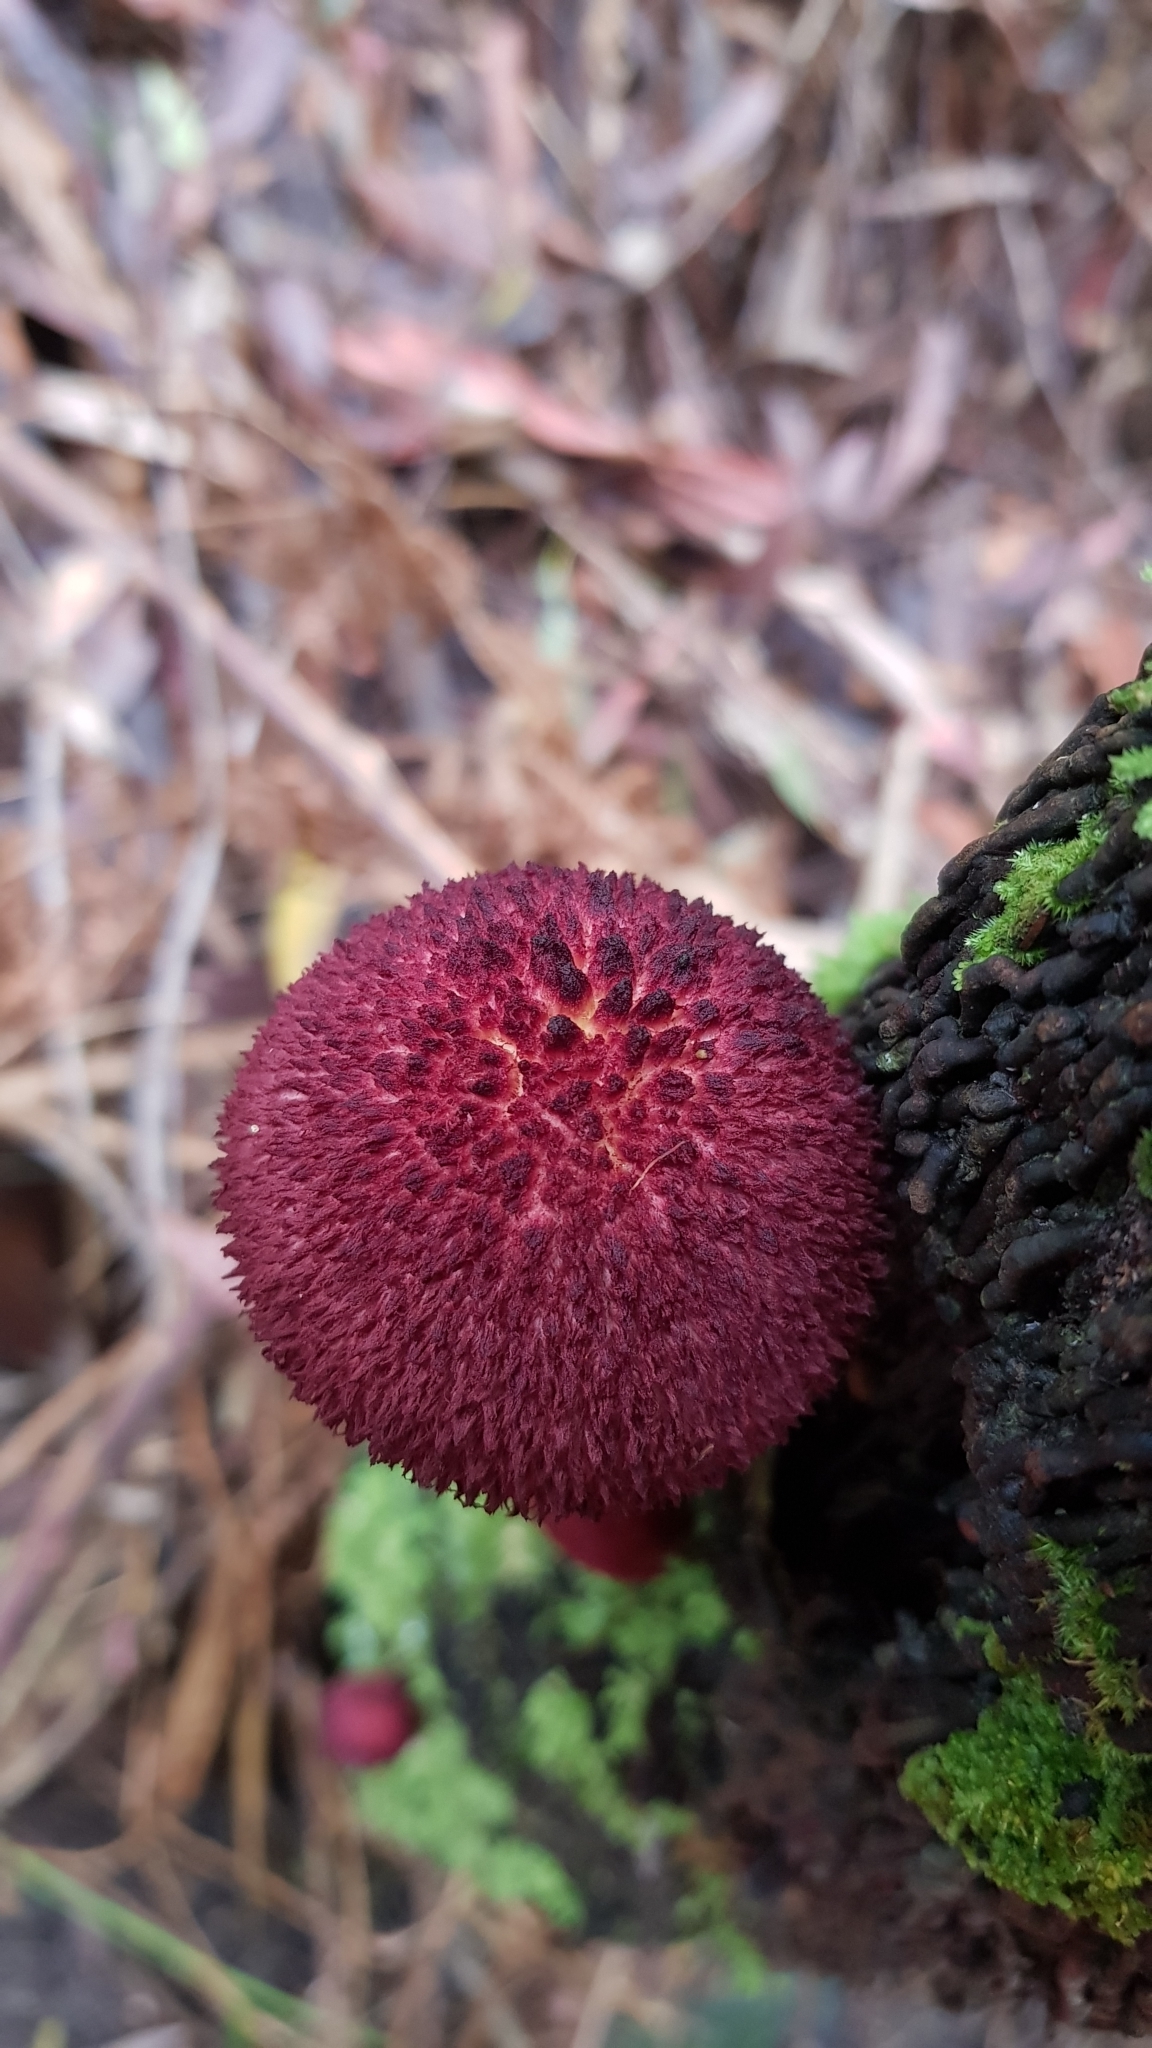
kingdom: Fungi
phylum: Basidiomycota
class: Agaricomycetes
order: Boletales
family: Boletaceae
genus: Boletellus
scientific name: Boletellus emodensis
